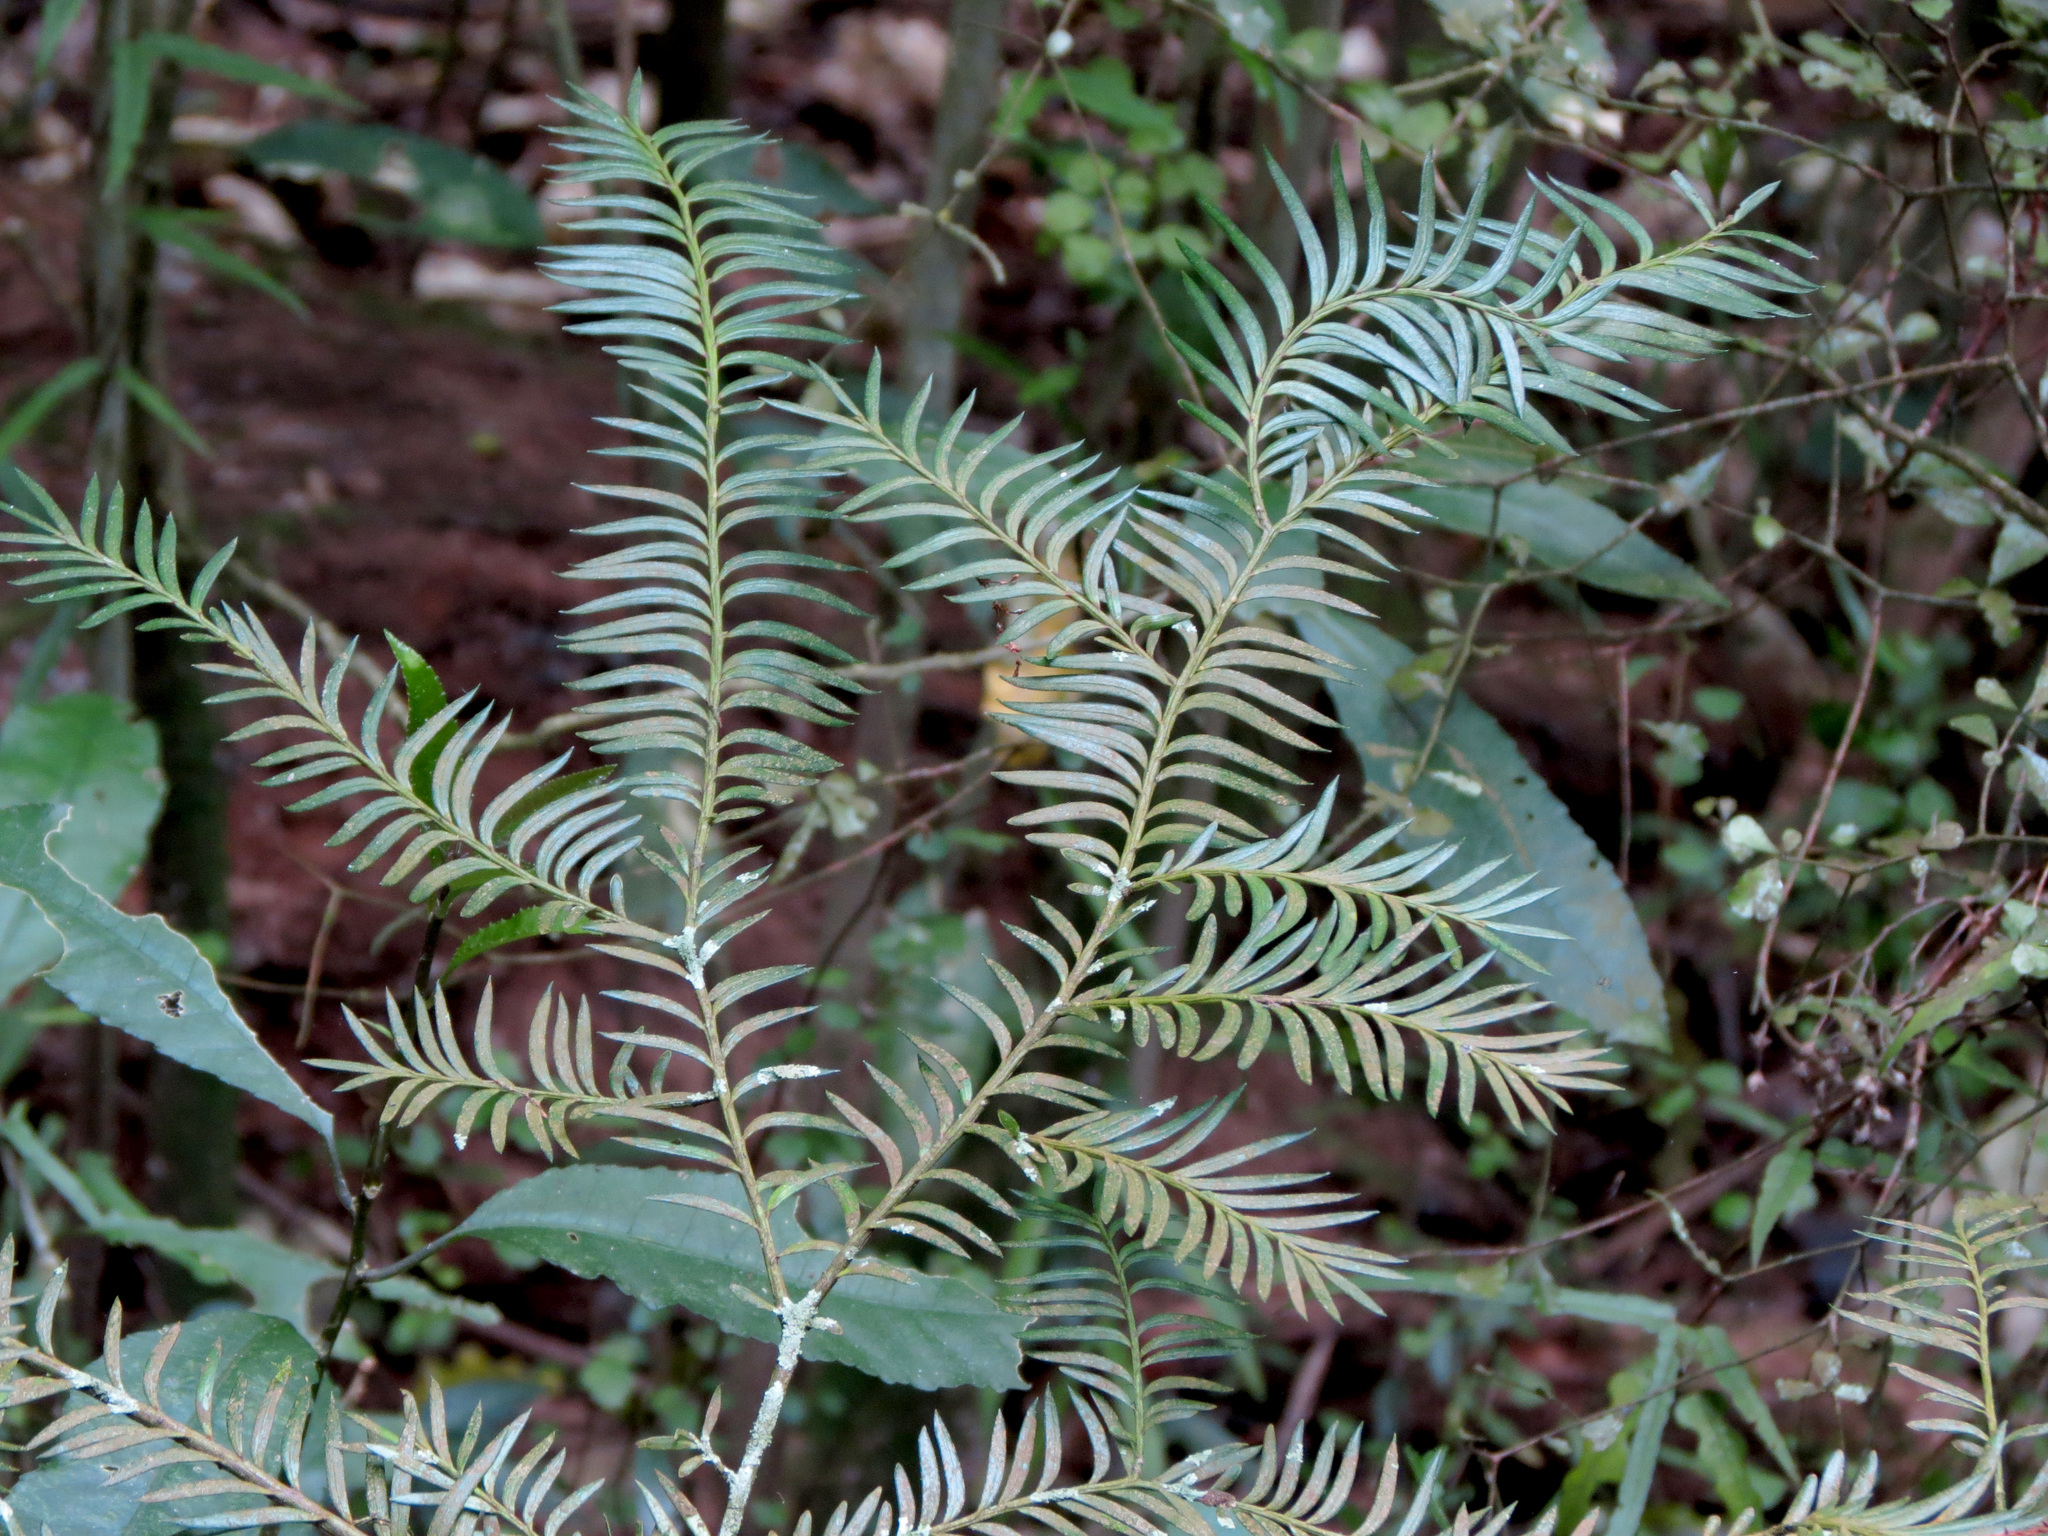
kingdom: Plantae
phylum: Tracheophyta
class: Pinopsida
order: Pinales
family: Podocarpaceae
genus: Prumnopitys
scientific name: Prumnopitys ferruginea
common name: Brown pine
